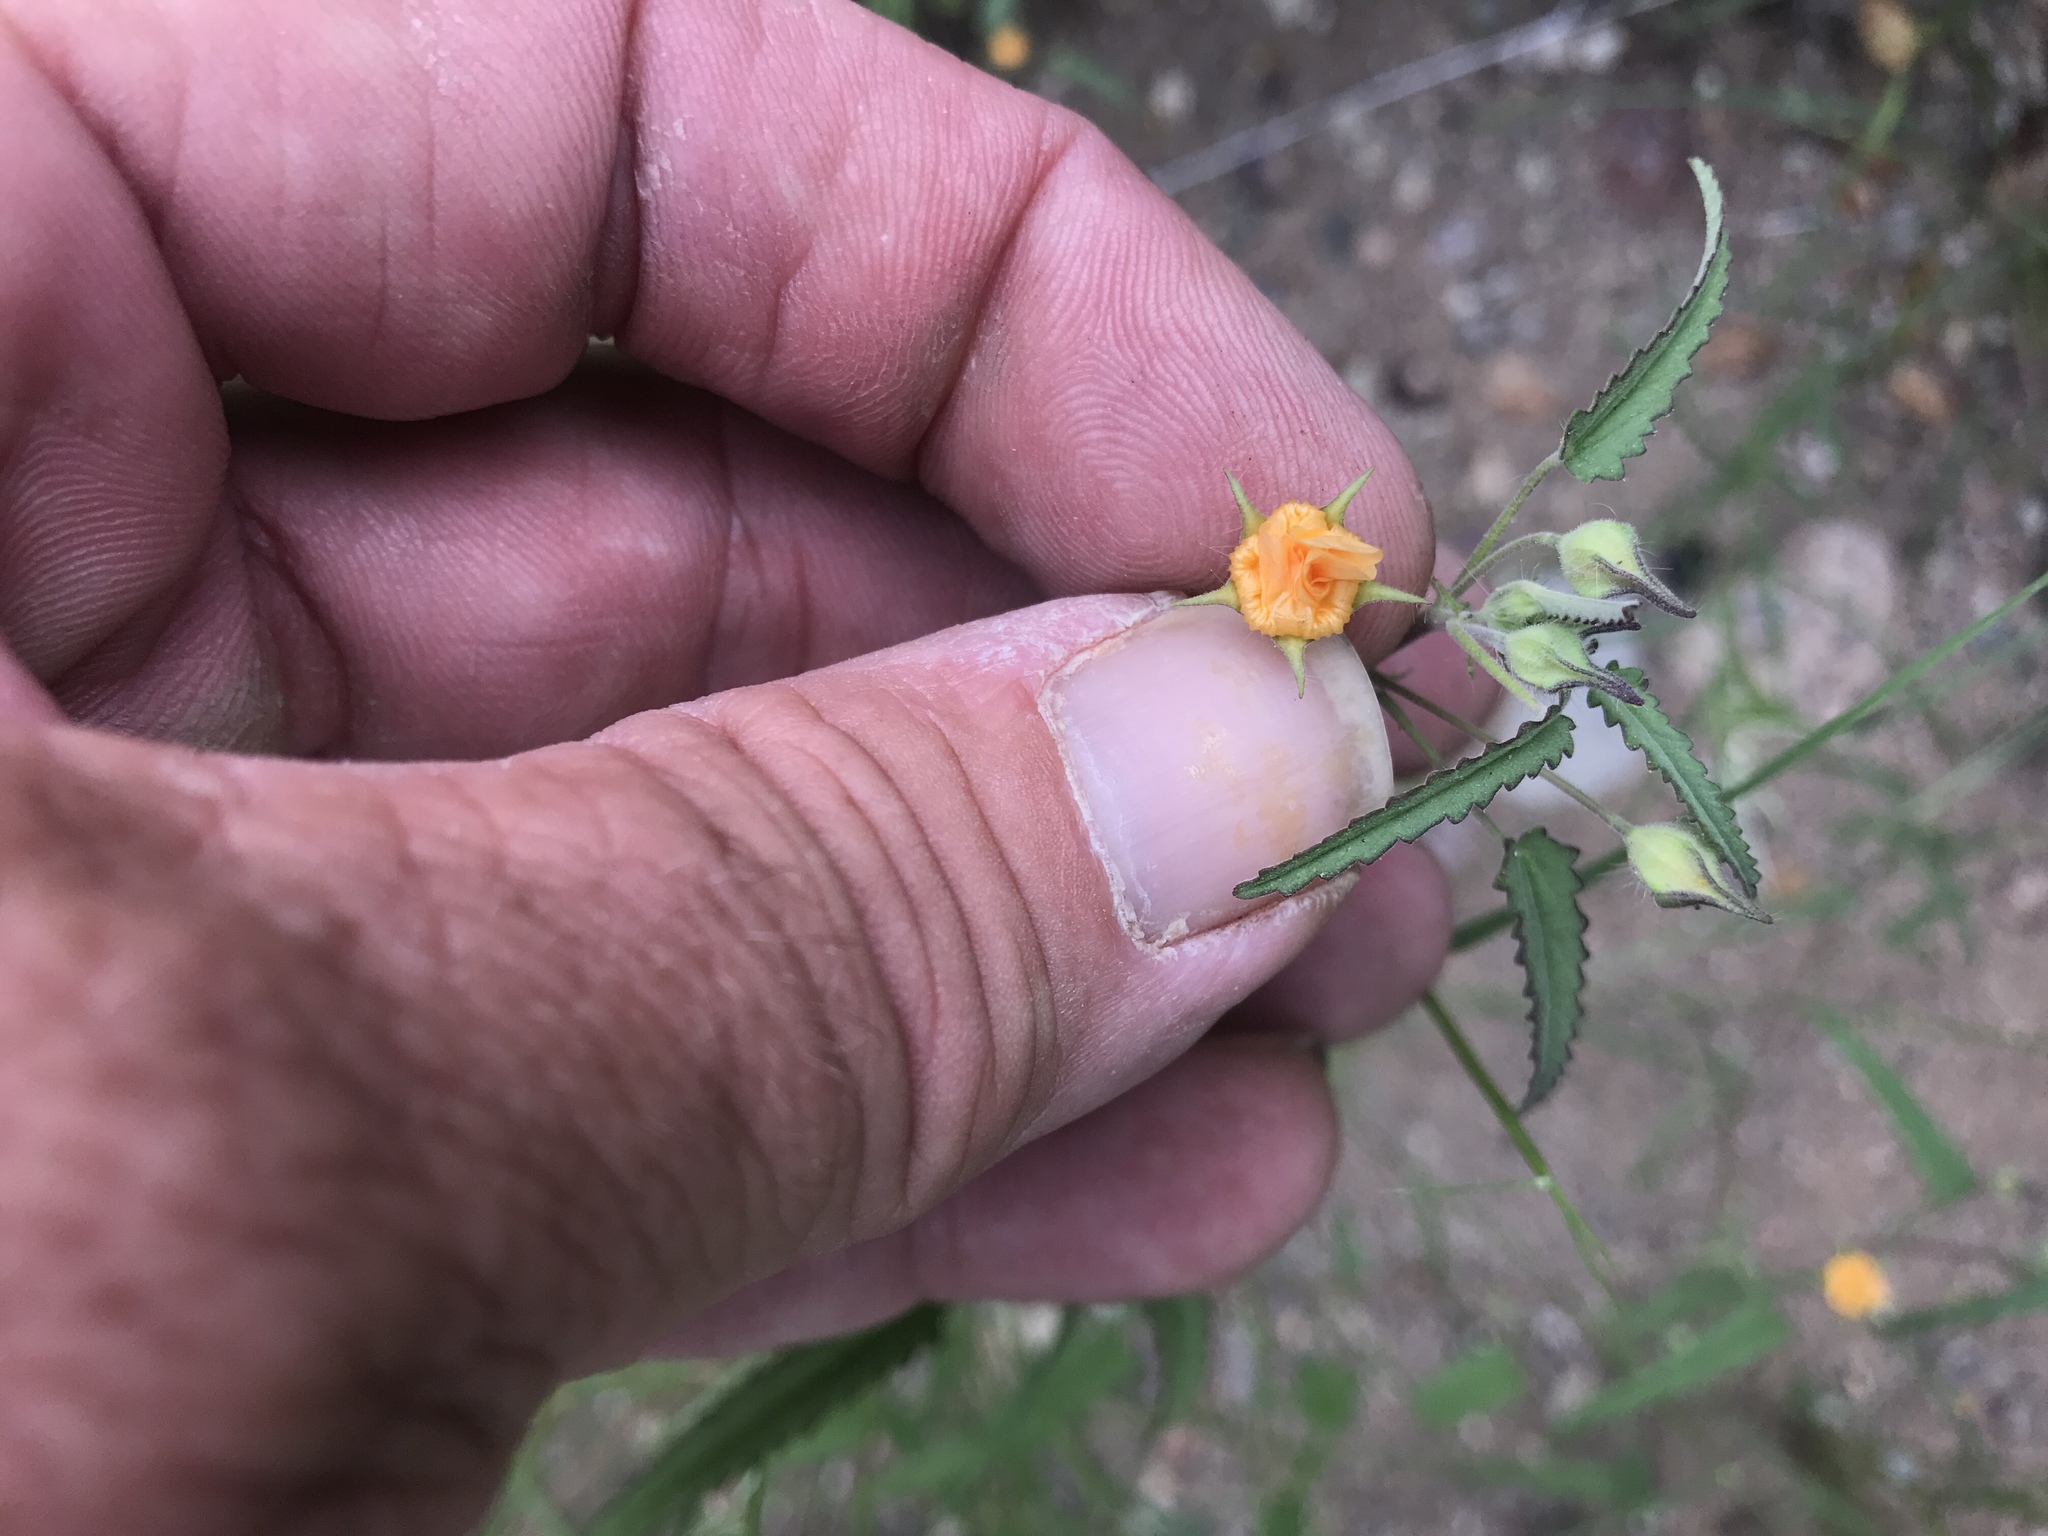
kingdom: Plantae
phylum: Tracheophyta
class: Magnoliopsida
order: Malvales
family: Malvaceae
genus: Sida
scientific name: Sida abutilifolia
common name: Spreading fanpetals
